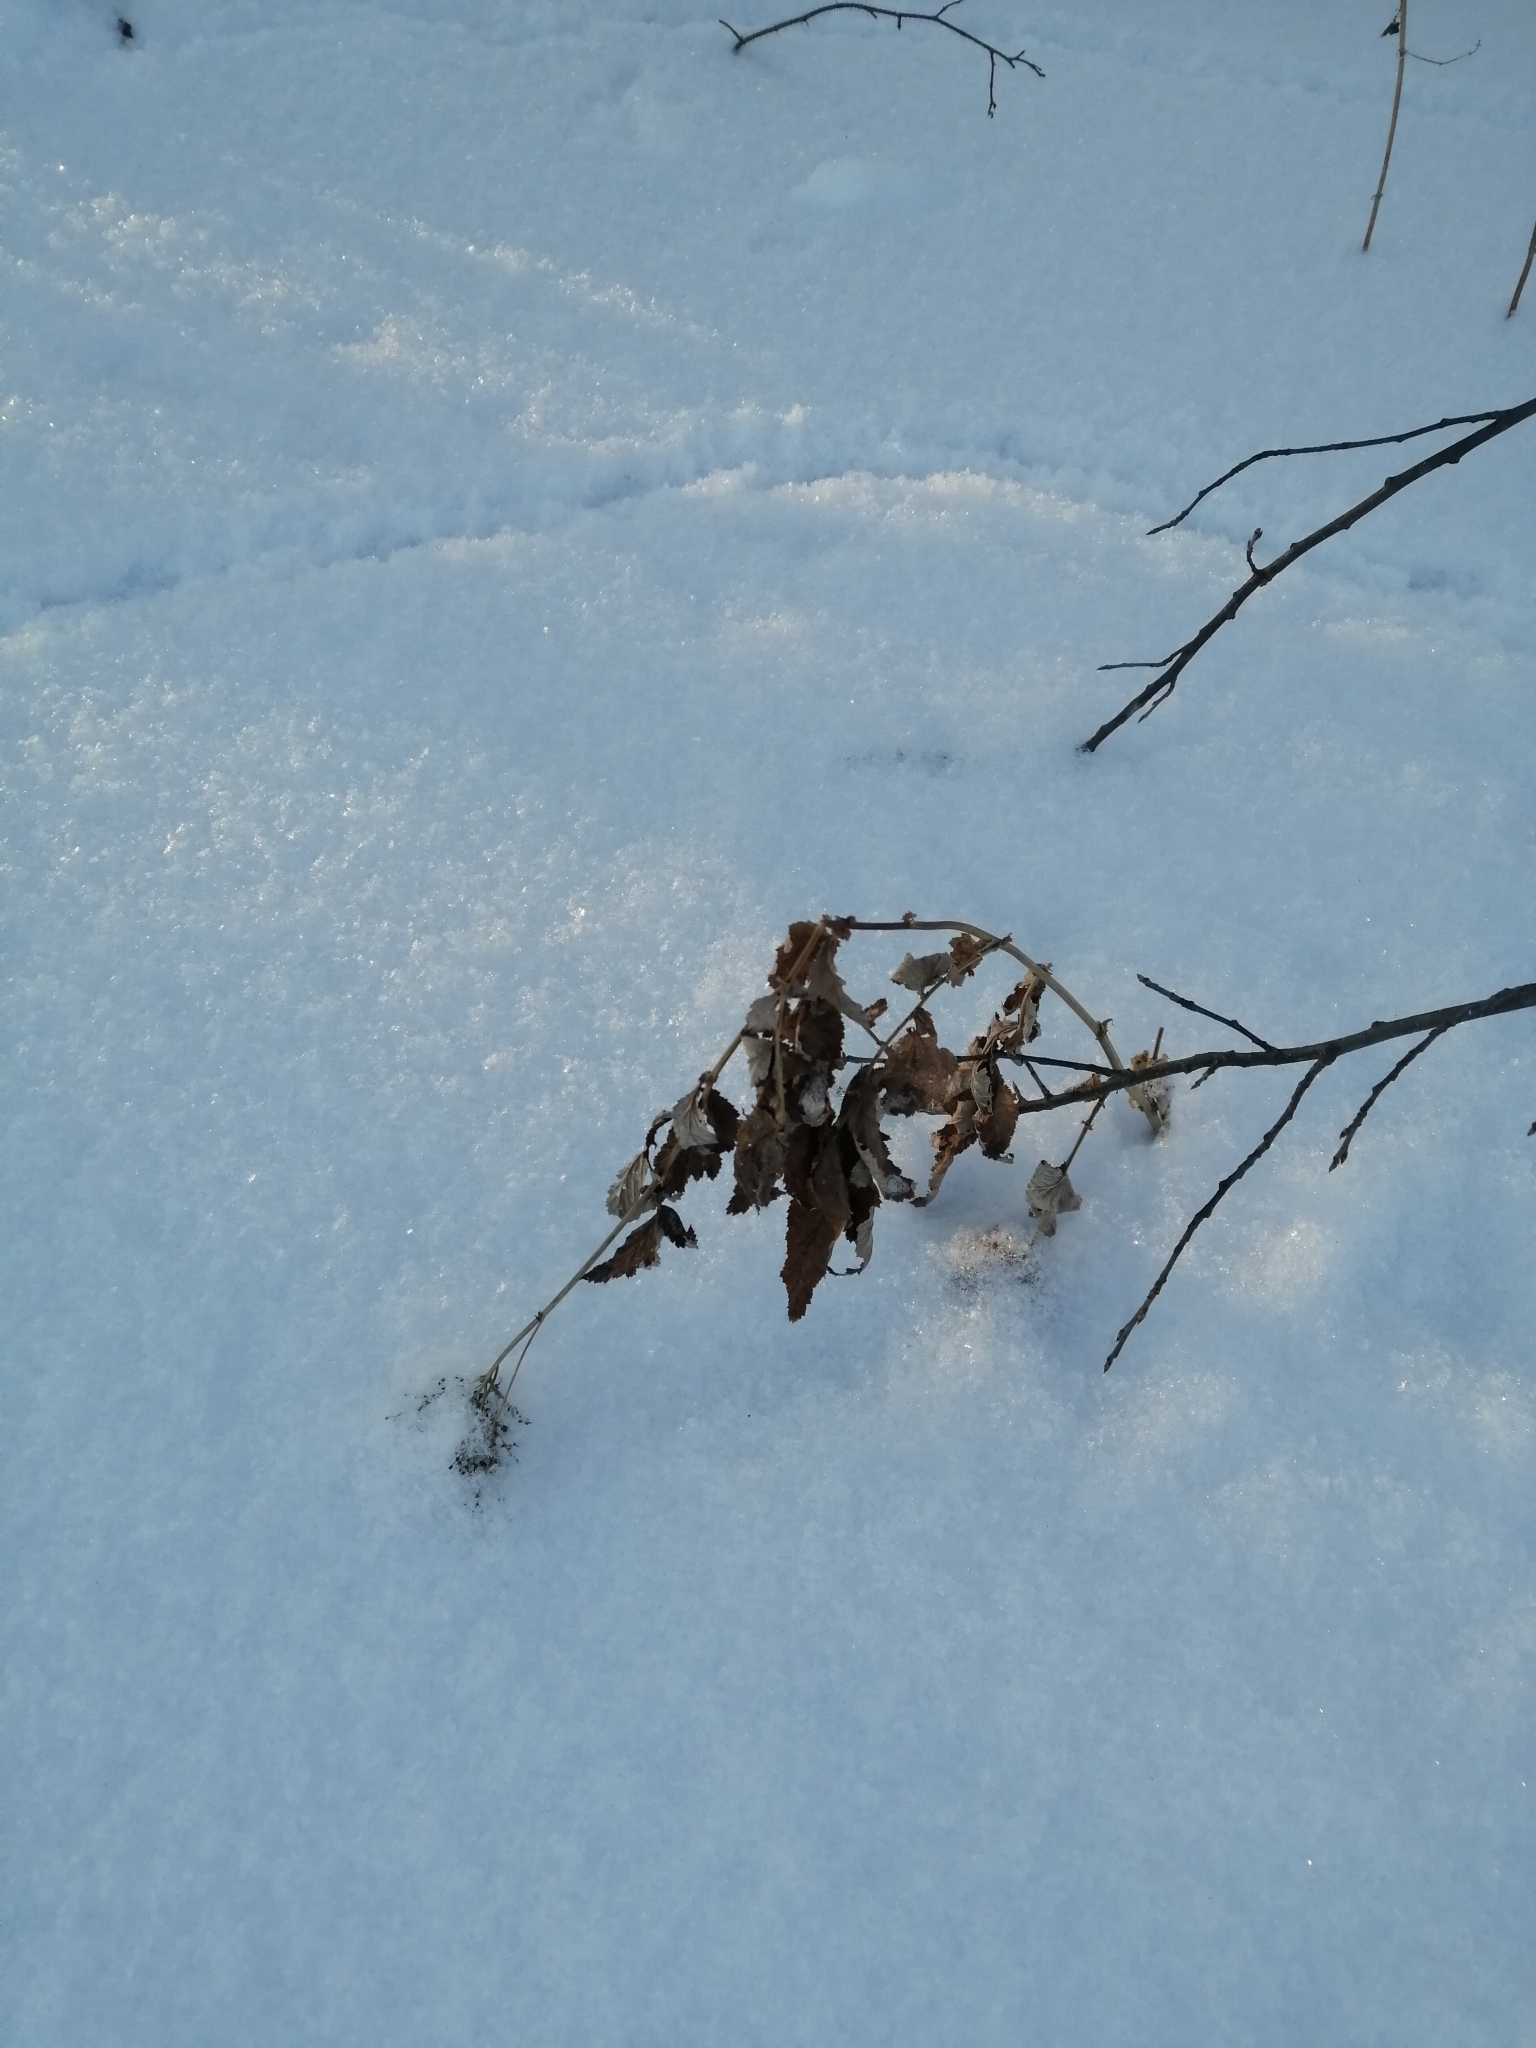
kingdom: Plantae
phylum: Tracheophyta
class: Magnoliopsida
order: Rosales
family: Rosaceae
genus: Filipendula
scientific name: Filipendula ulmaria
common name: Meadowsweet
